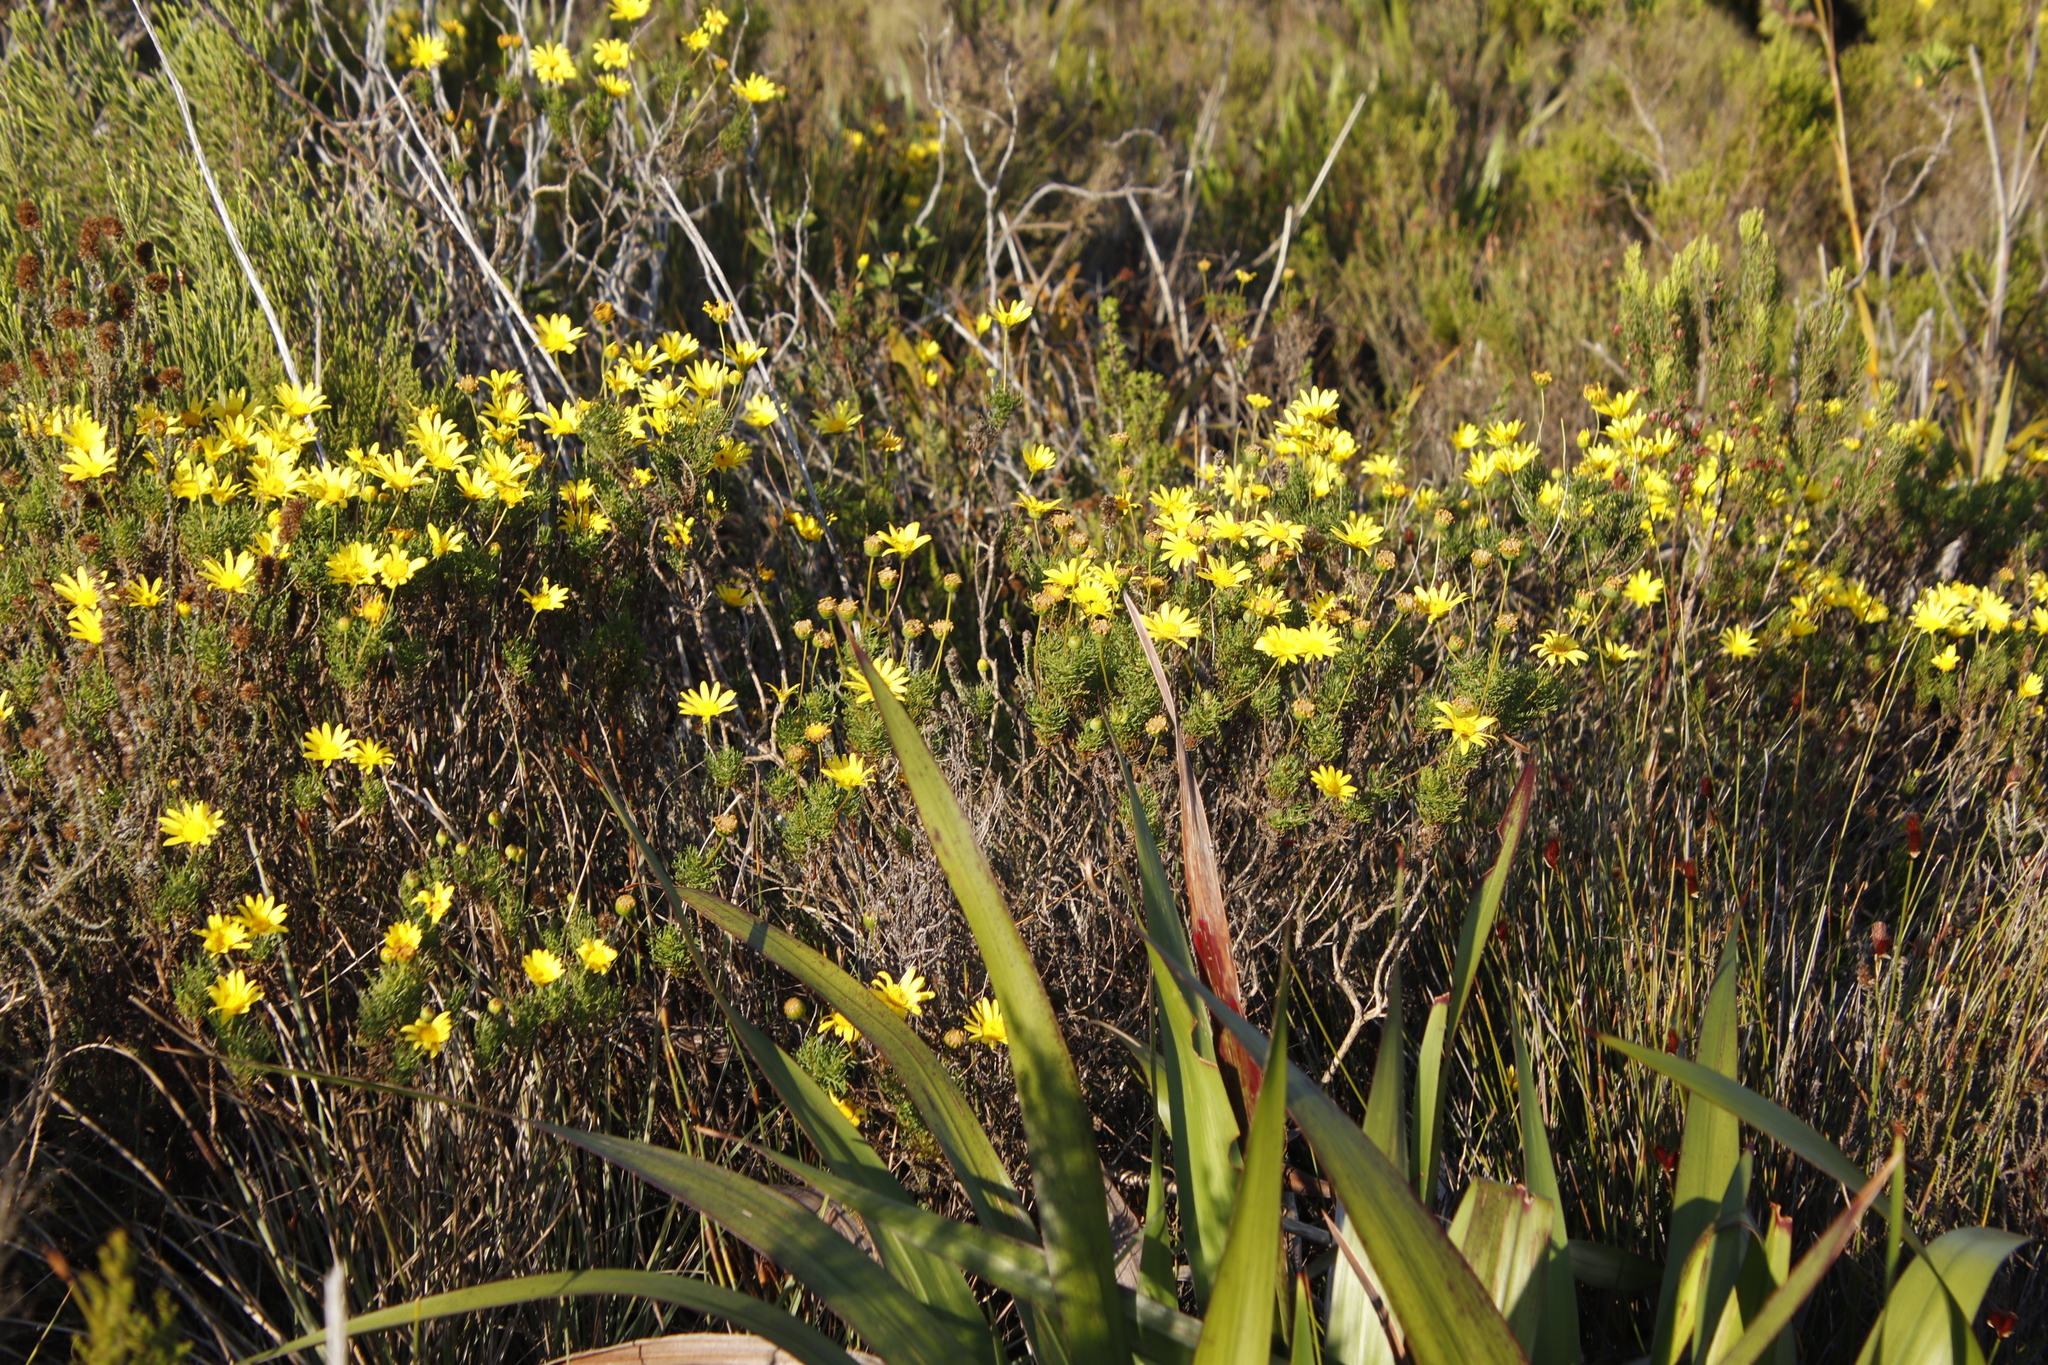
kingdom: Plantae
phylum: Tracheophyta
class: Magnoliopsida
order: Asterales
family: Asteraceae
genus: Euryops
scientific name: Euryops abrotanifolius
